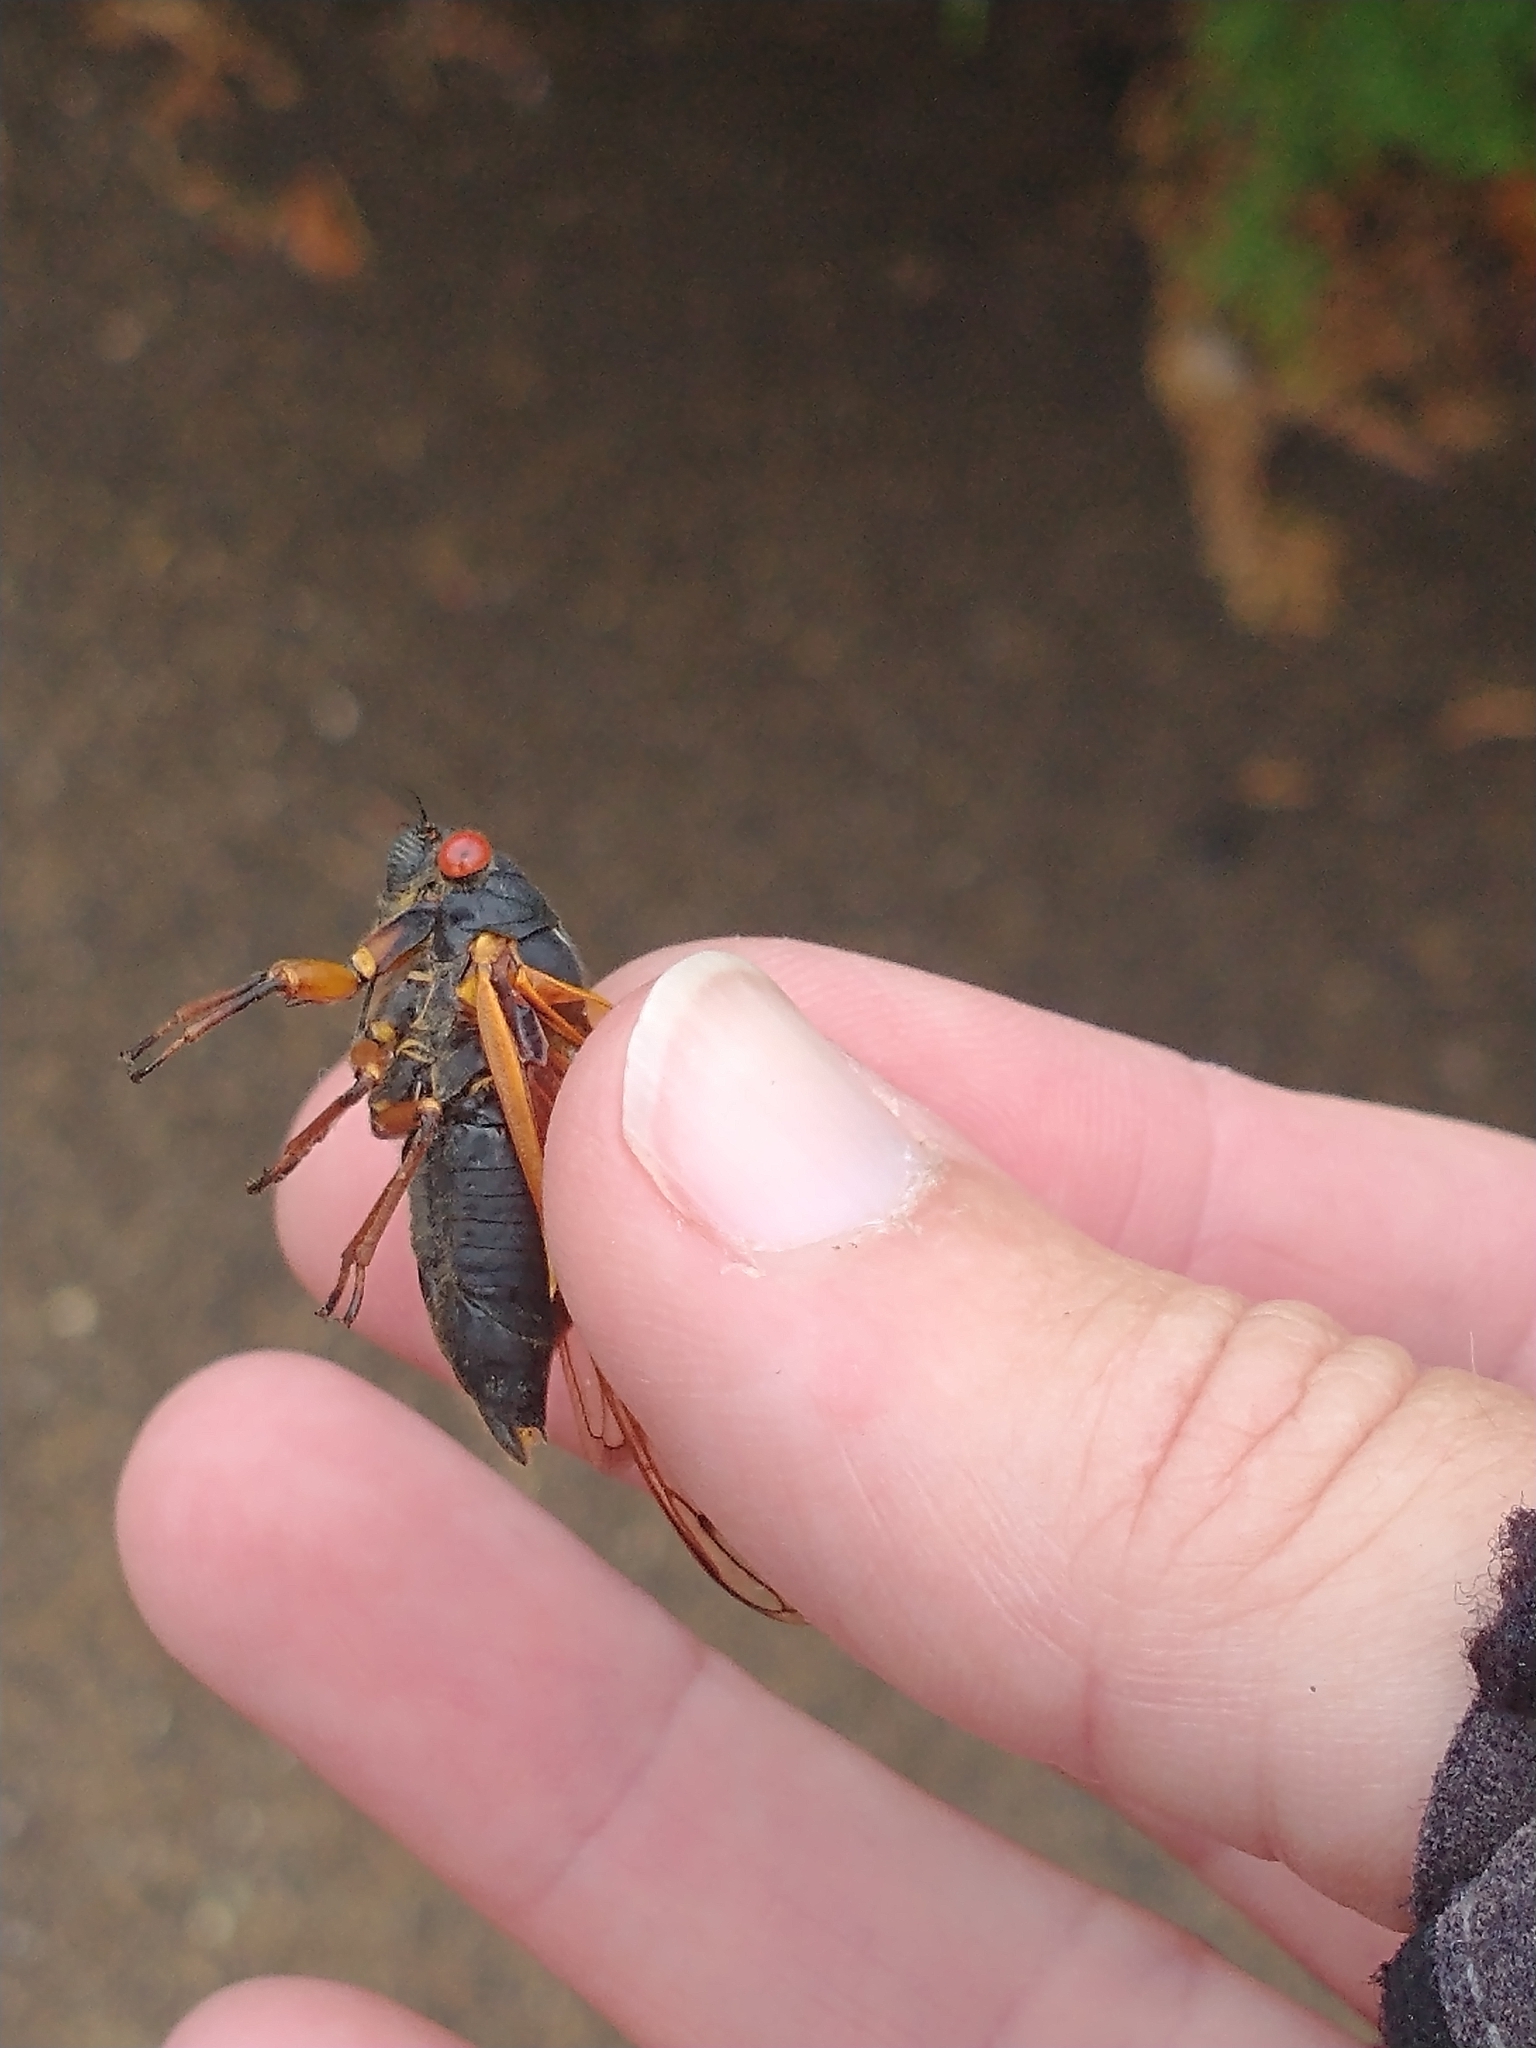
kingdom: Animalia
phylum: Arthropoda
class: Insecta
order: Hemiptera
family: Cicadidae
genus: Magicicada
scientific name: Magicicada cassini
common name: Cassin's 17-year cicada
